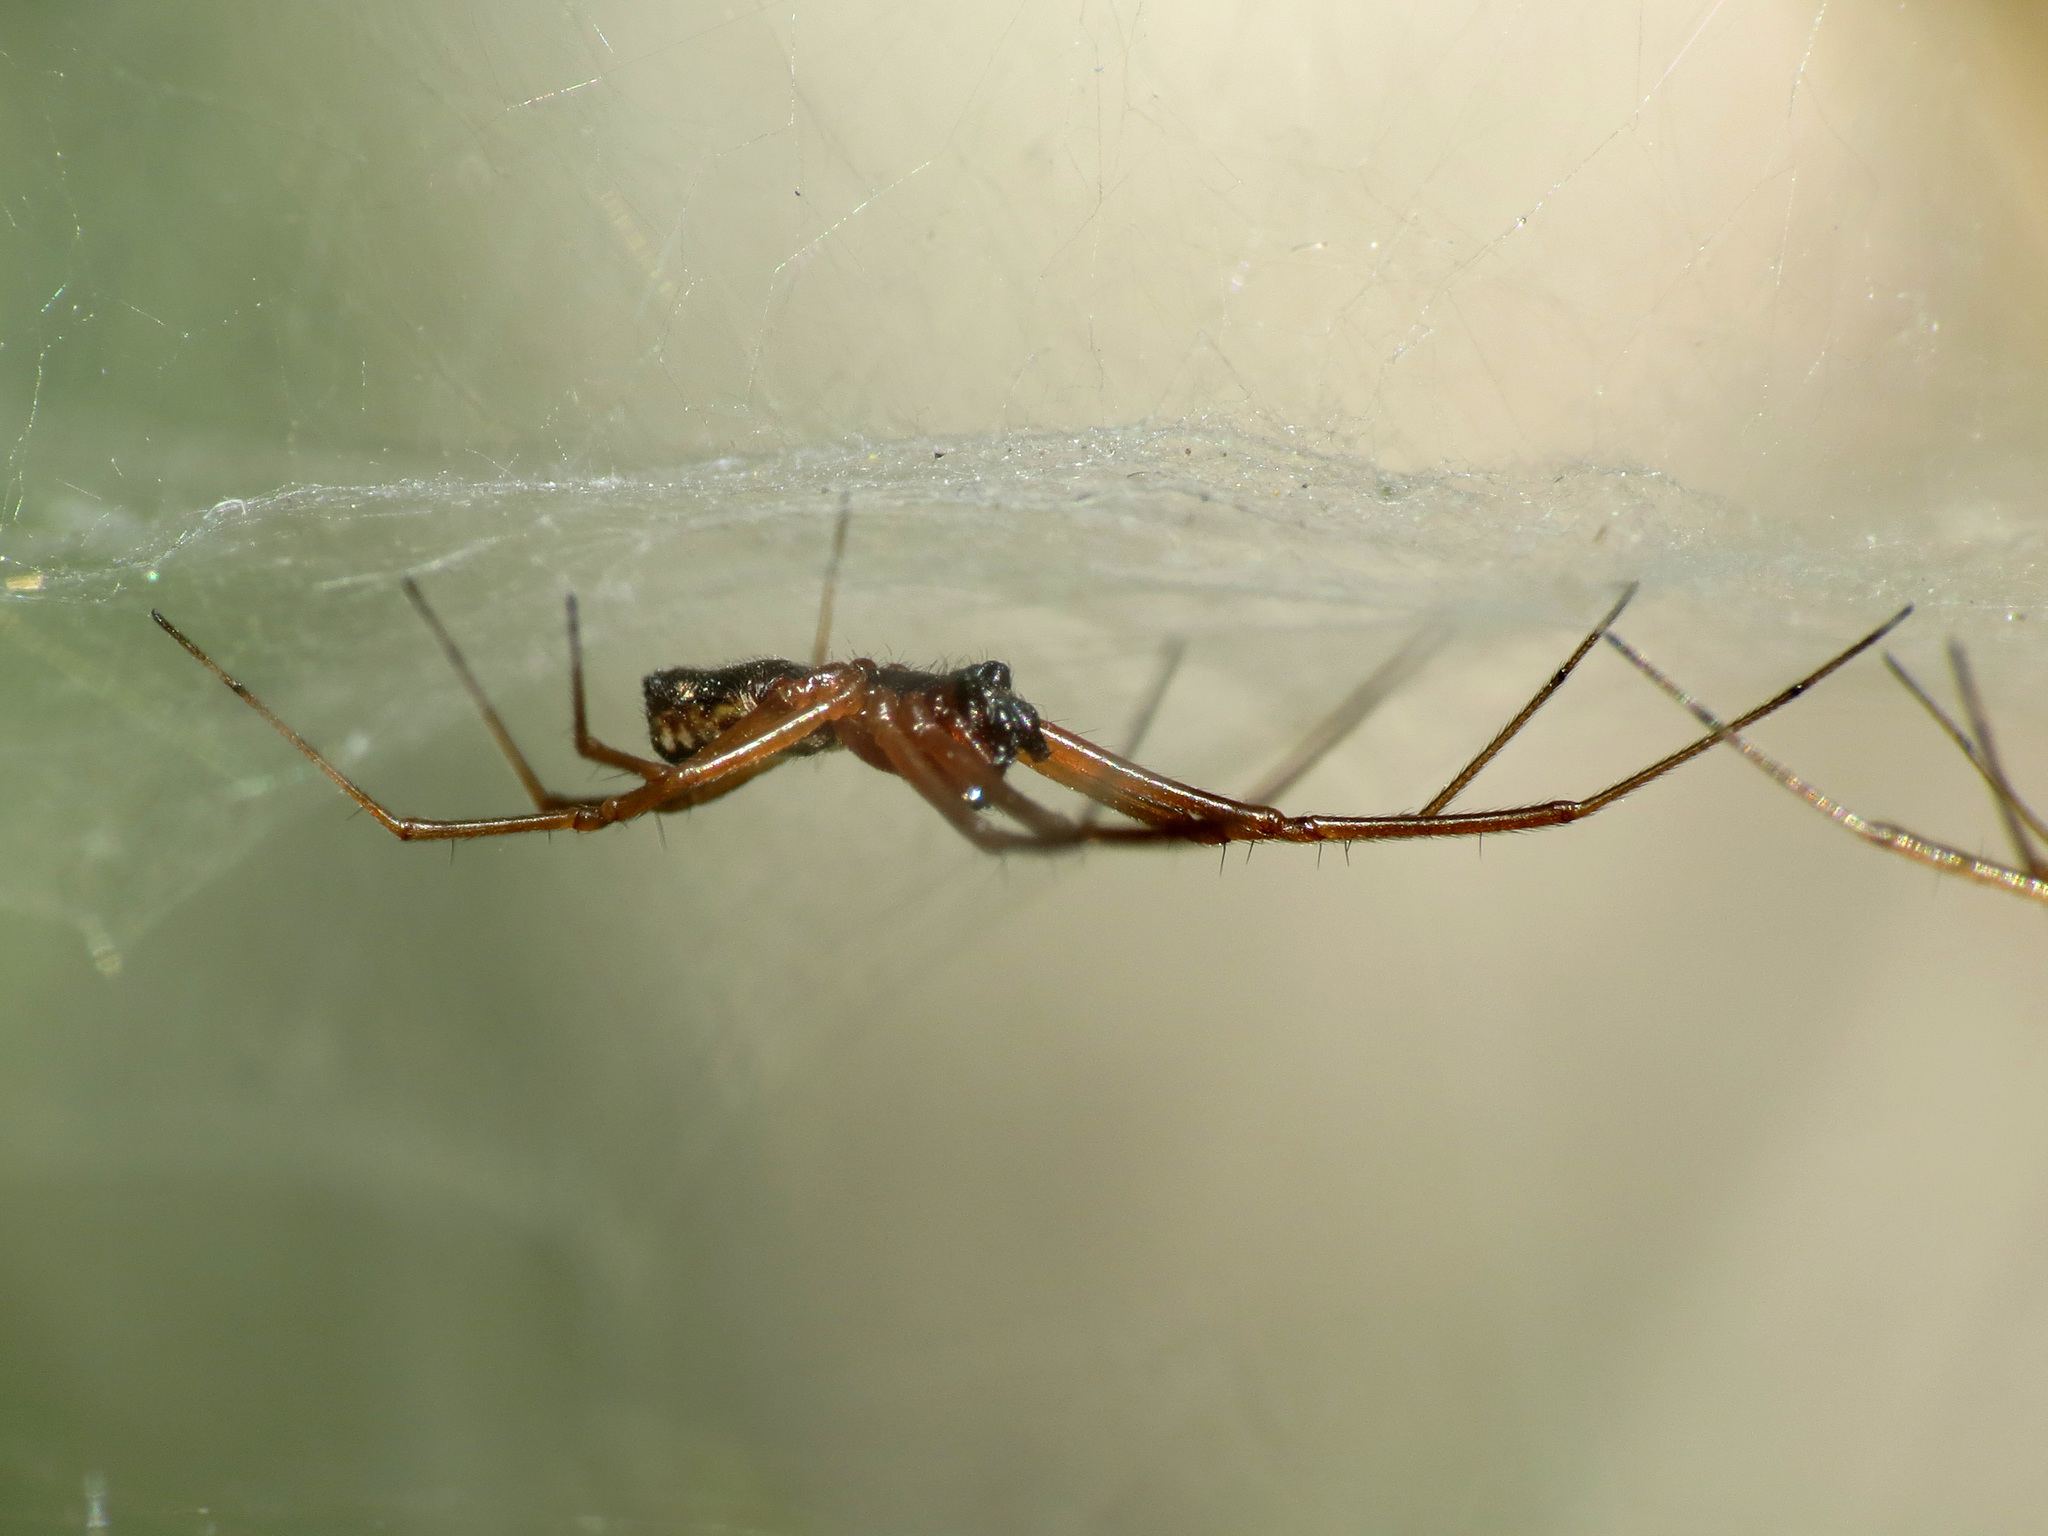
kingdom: Animalia
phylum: Arthropoda
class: Arachnida
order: Araneae
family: Linyphiidae
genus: Frontinella
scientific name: Frontinella pyramitela
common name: Bowl-and-doily spider
